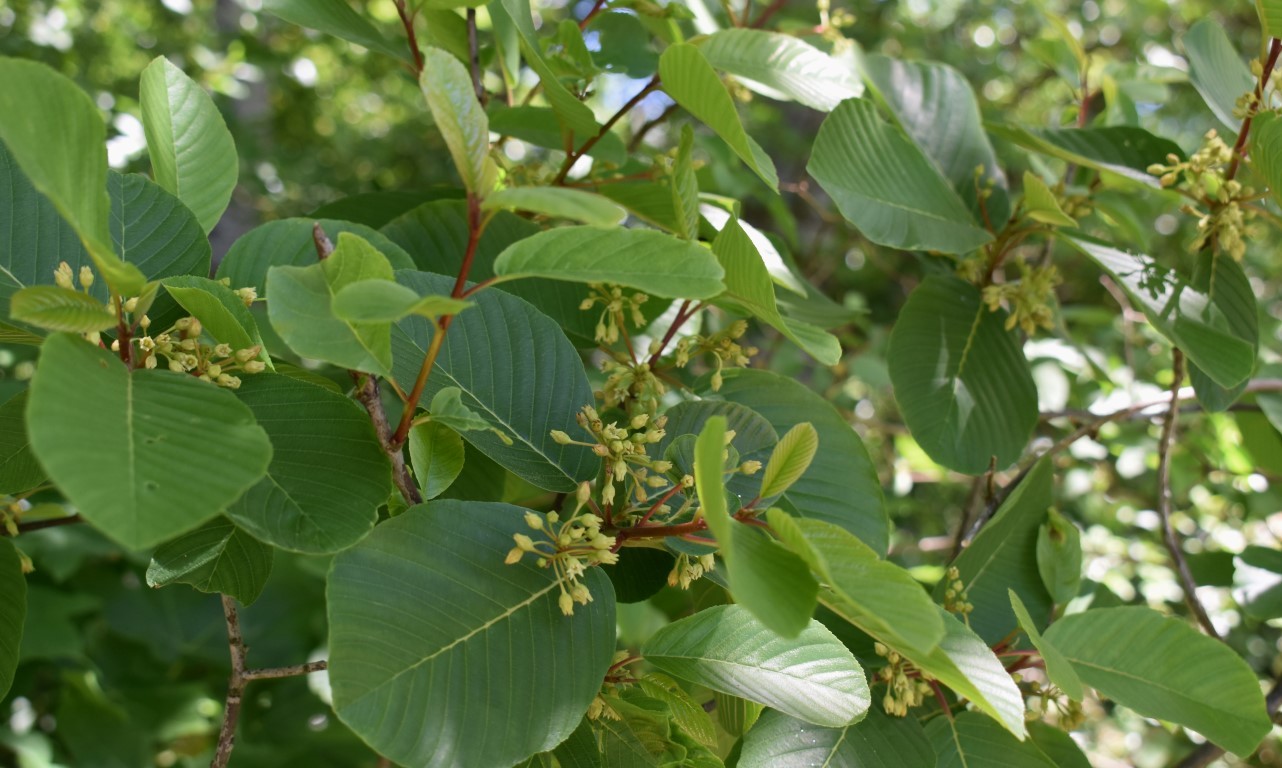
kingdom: Plantae
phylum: Tracheophyta
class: Magnoliopsida
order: Rosales
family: Rhamnaceae
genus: Frangula
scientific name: Frangula purshiana
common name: Cascara buckthorn
